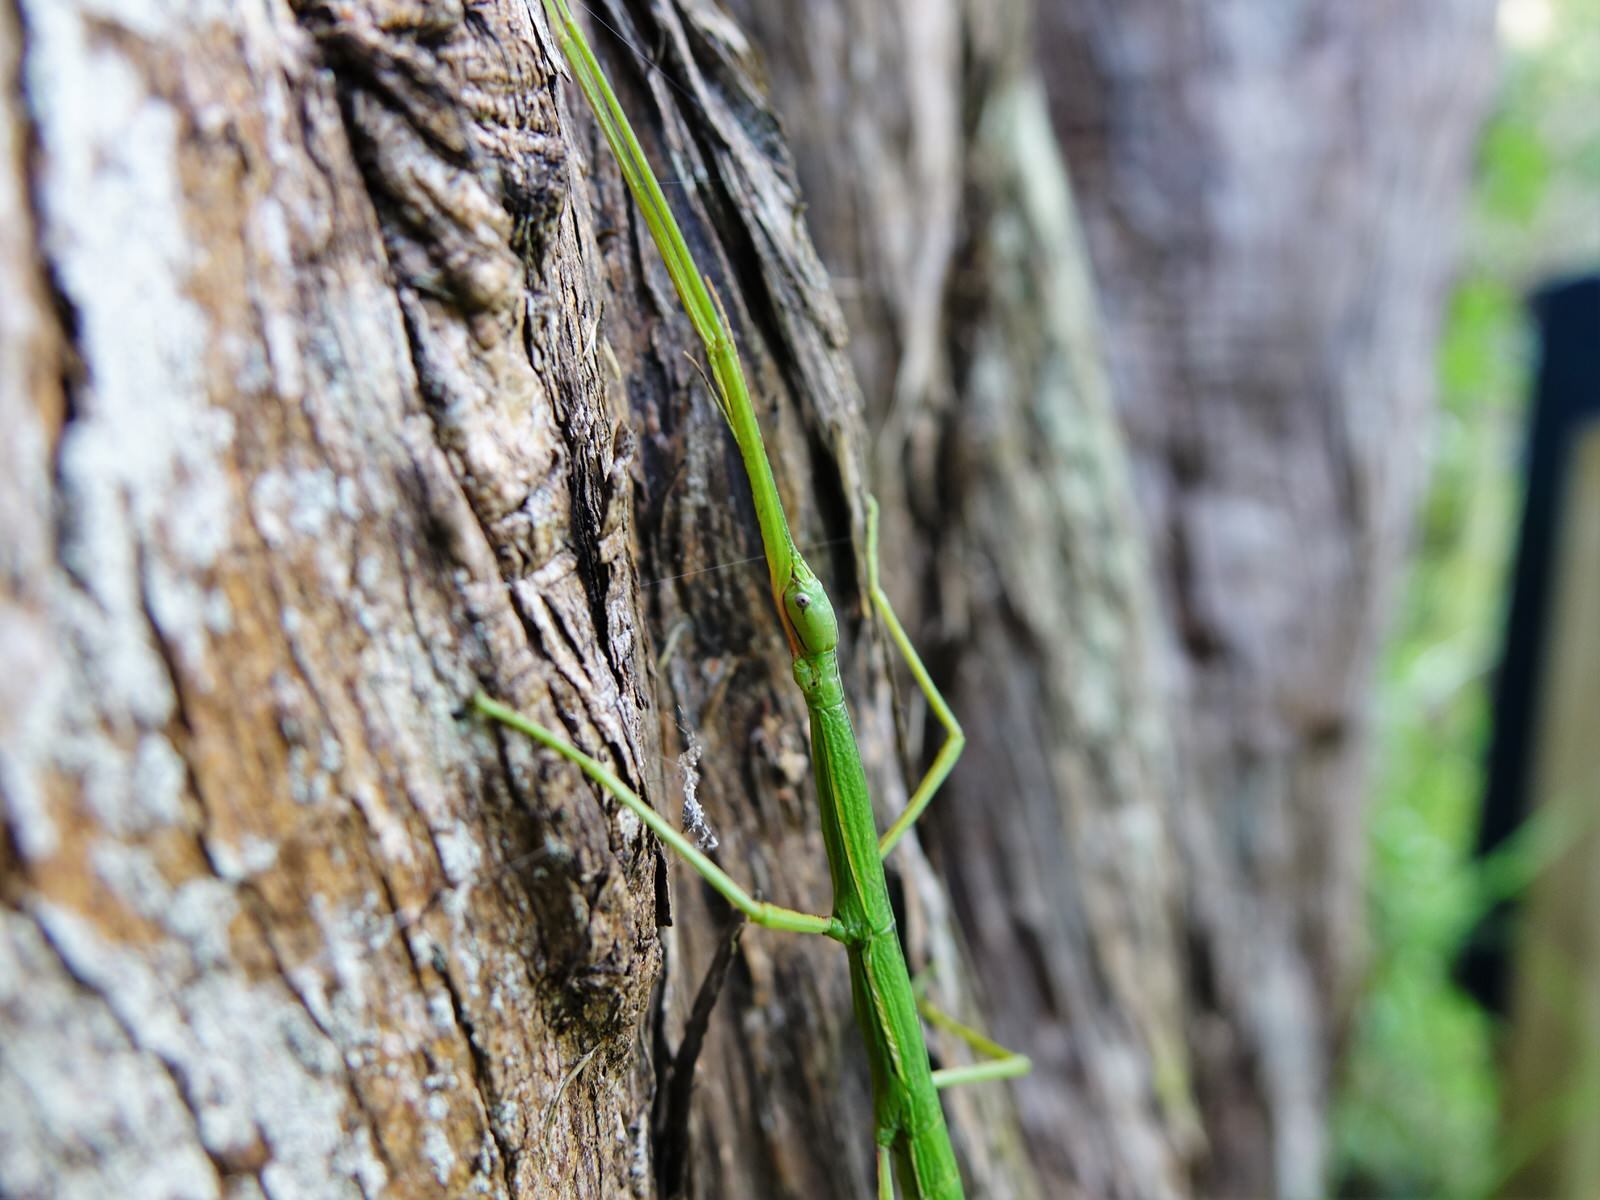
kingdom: Animalia
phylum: Arthropoda
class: Insecta
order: Phasmida
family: Phasmatidae
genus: Clitarchus
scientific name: Clitarchus hookeri
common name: Smooth stick insect
